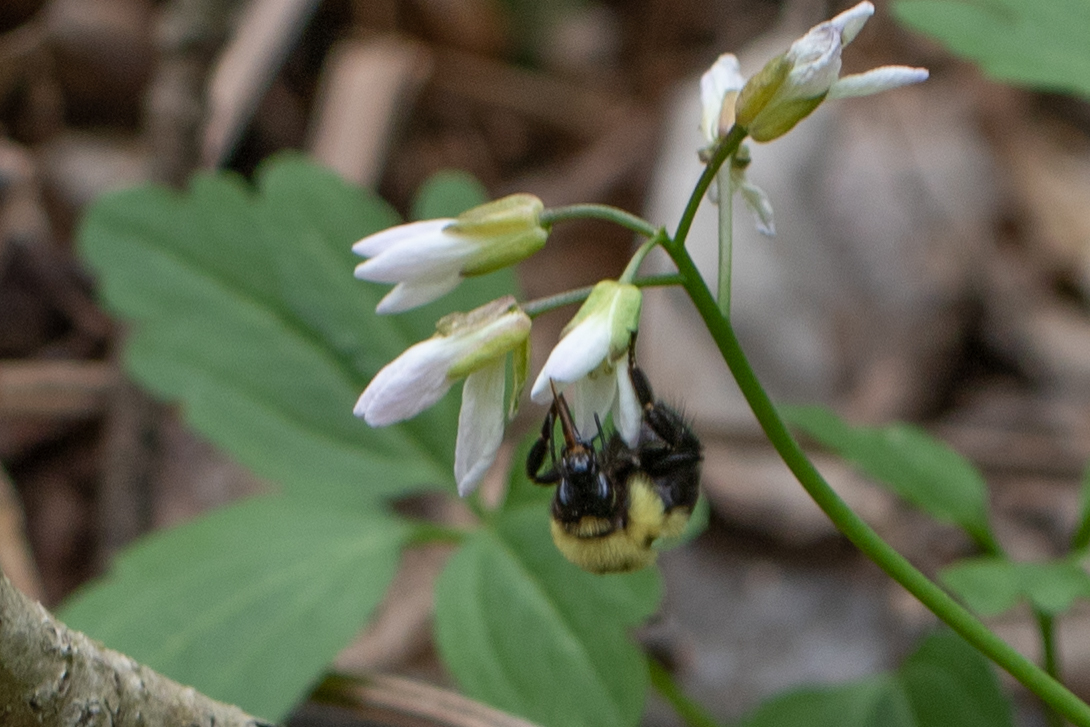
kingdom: Animalia
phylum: Arthropoda
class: Insecta
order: Hymenoptera
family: Apidae
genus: Bombus
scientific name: Bombus bimaculatus
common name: Two-spotted bumble bee
